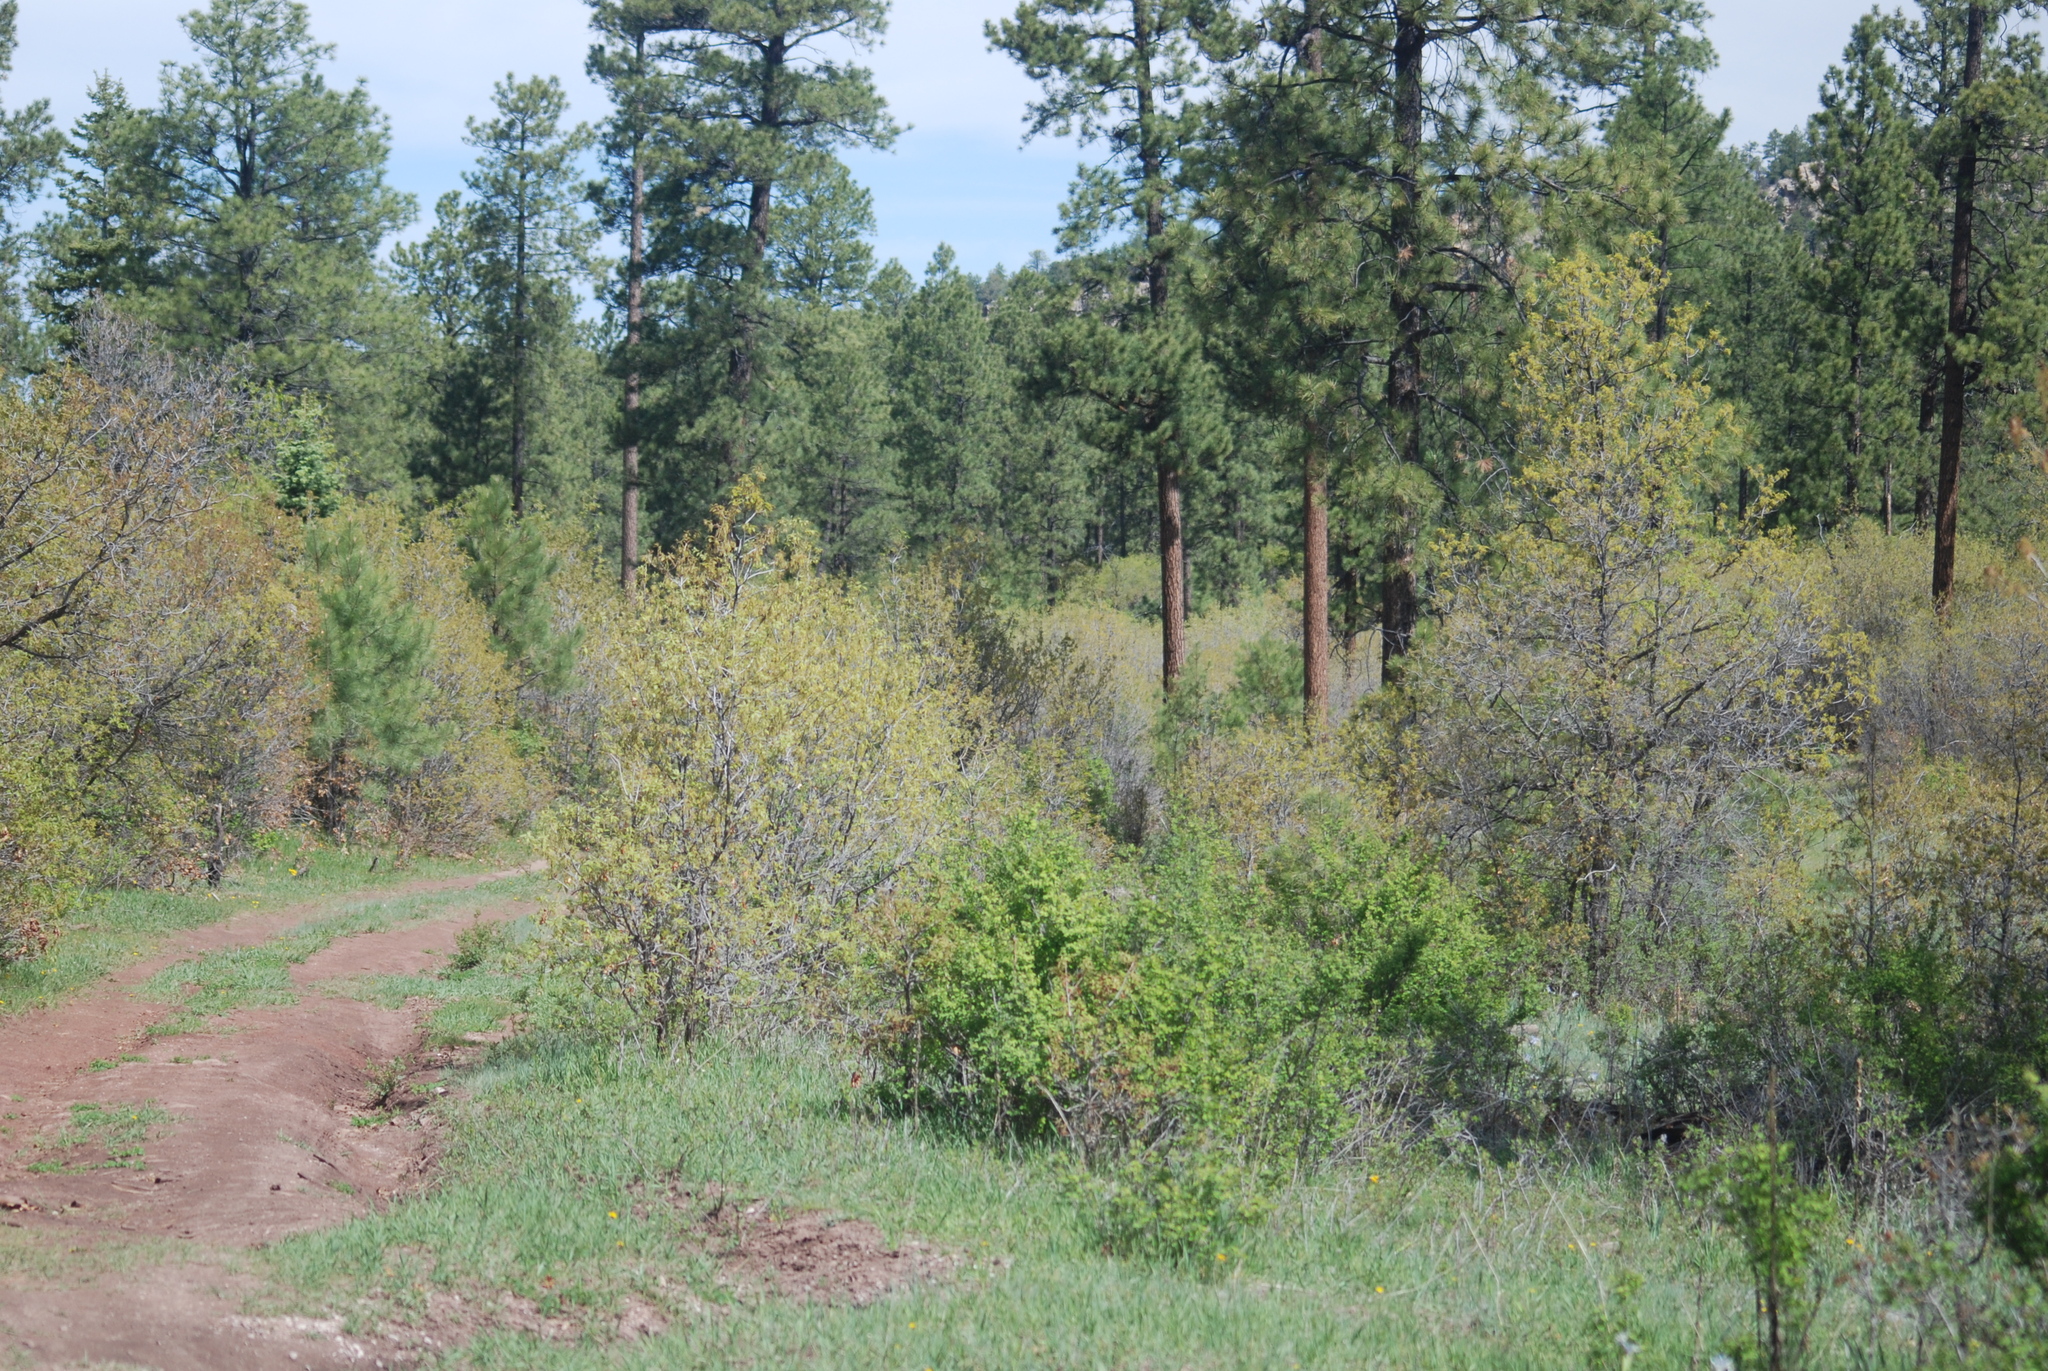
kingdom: Plantae
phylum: Tracheophyta
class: Pinopsida
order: Pinales
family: Pinaceae
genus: Pinus
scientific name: Pinus ponderosa
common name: Western yellow-pine
